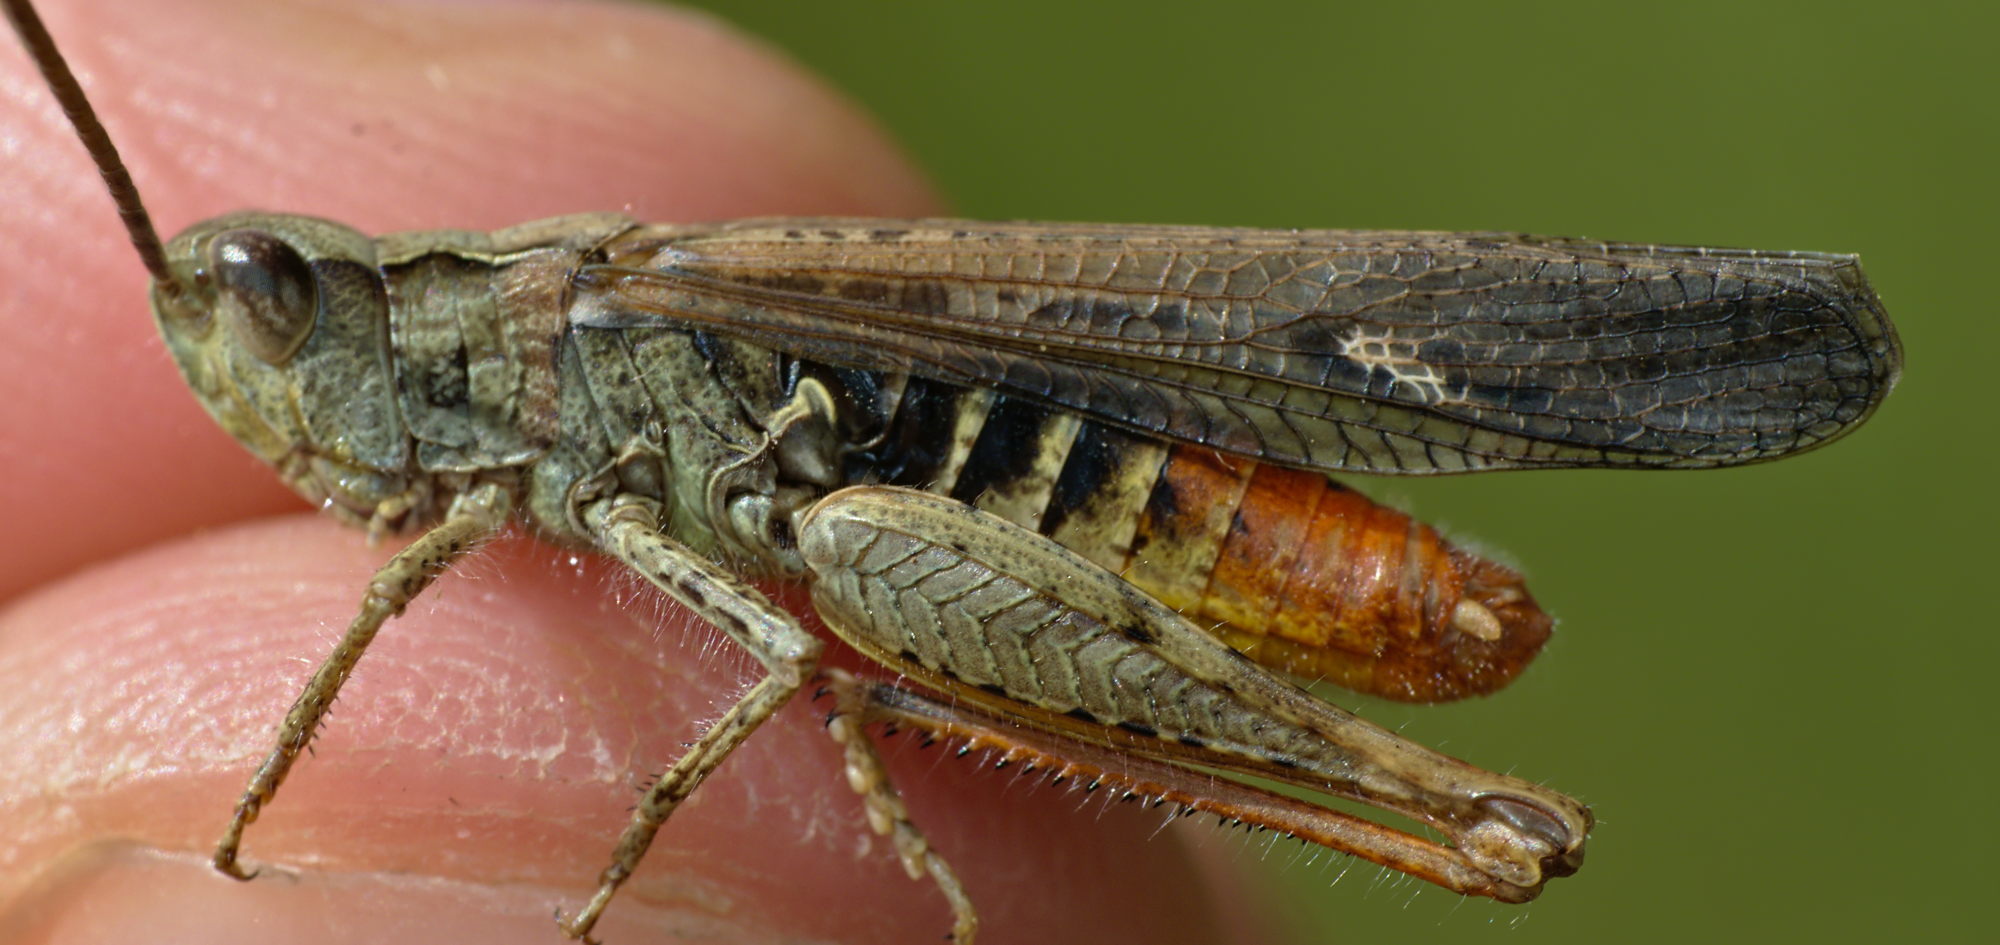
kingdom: Animalia
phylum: Arthropoda
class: Insecta
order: Orthoptera
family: Acrididae
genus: Chorthippus
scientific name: Chorthippus brunneus
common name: Field grasshopper
